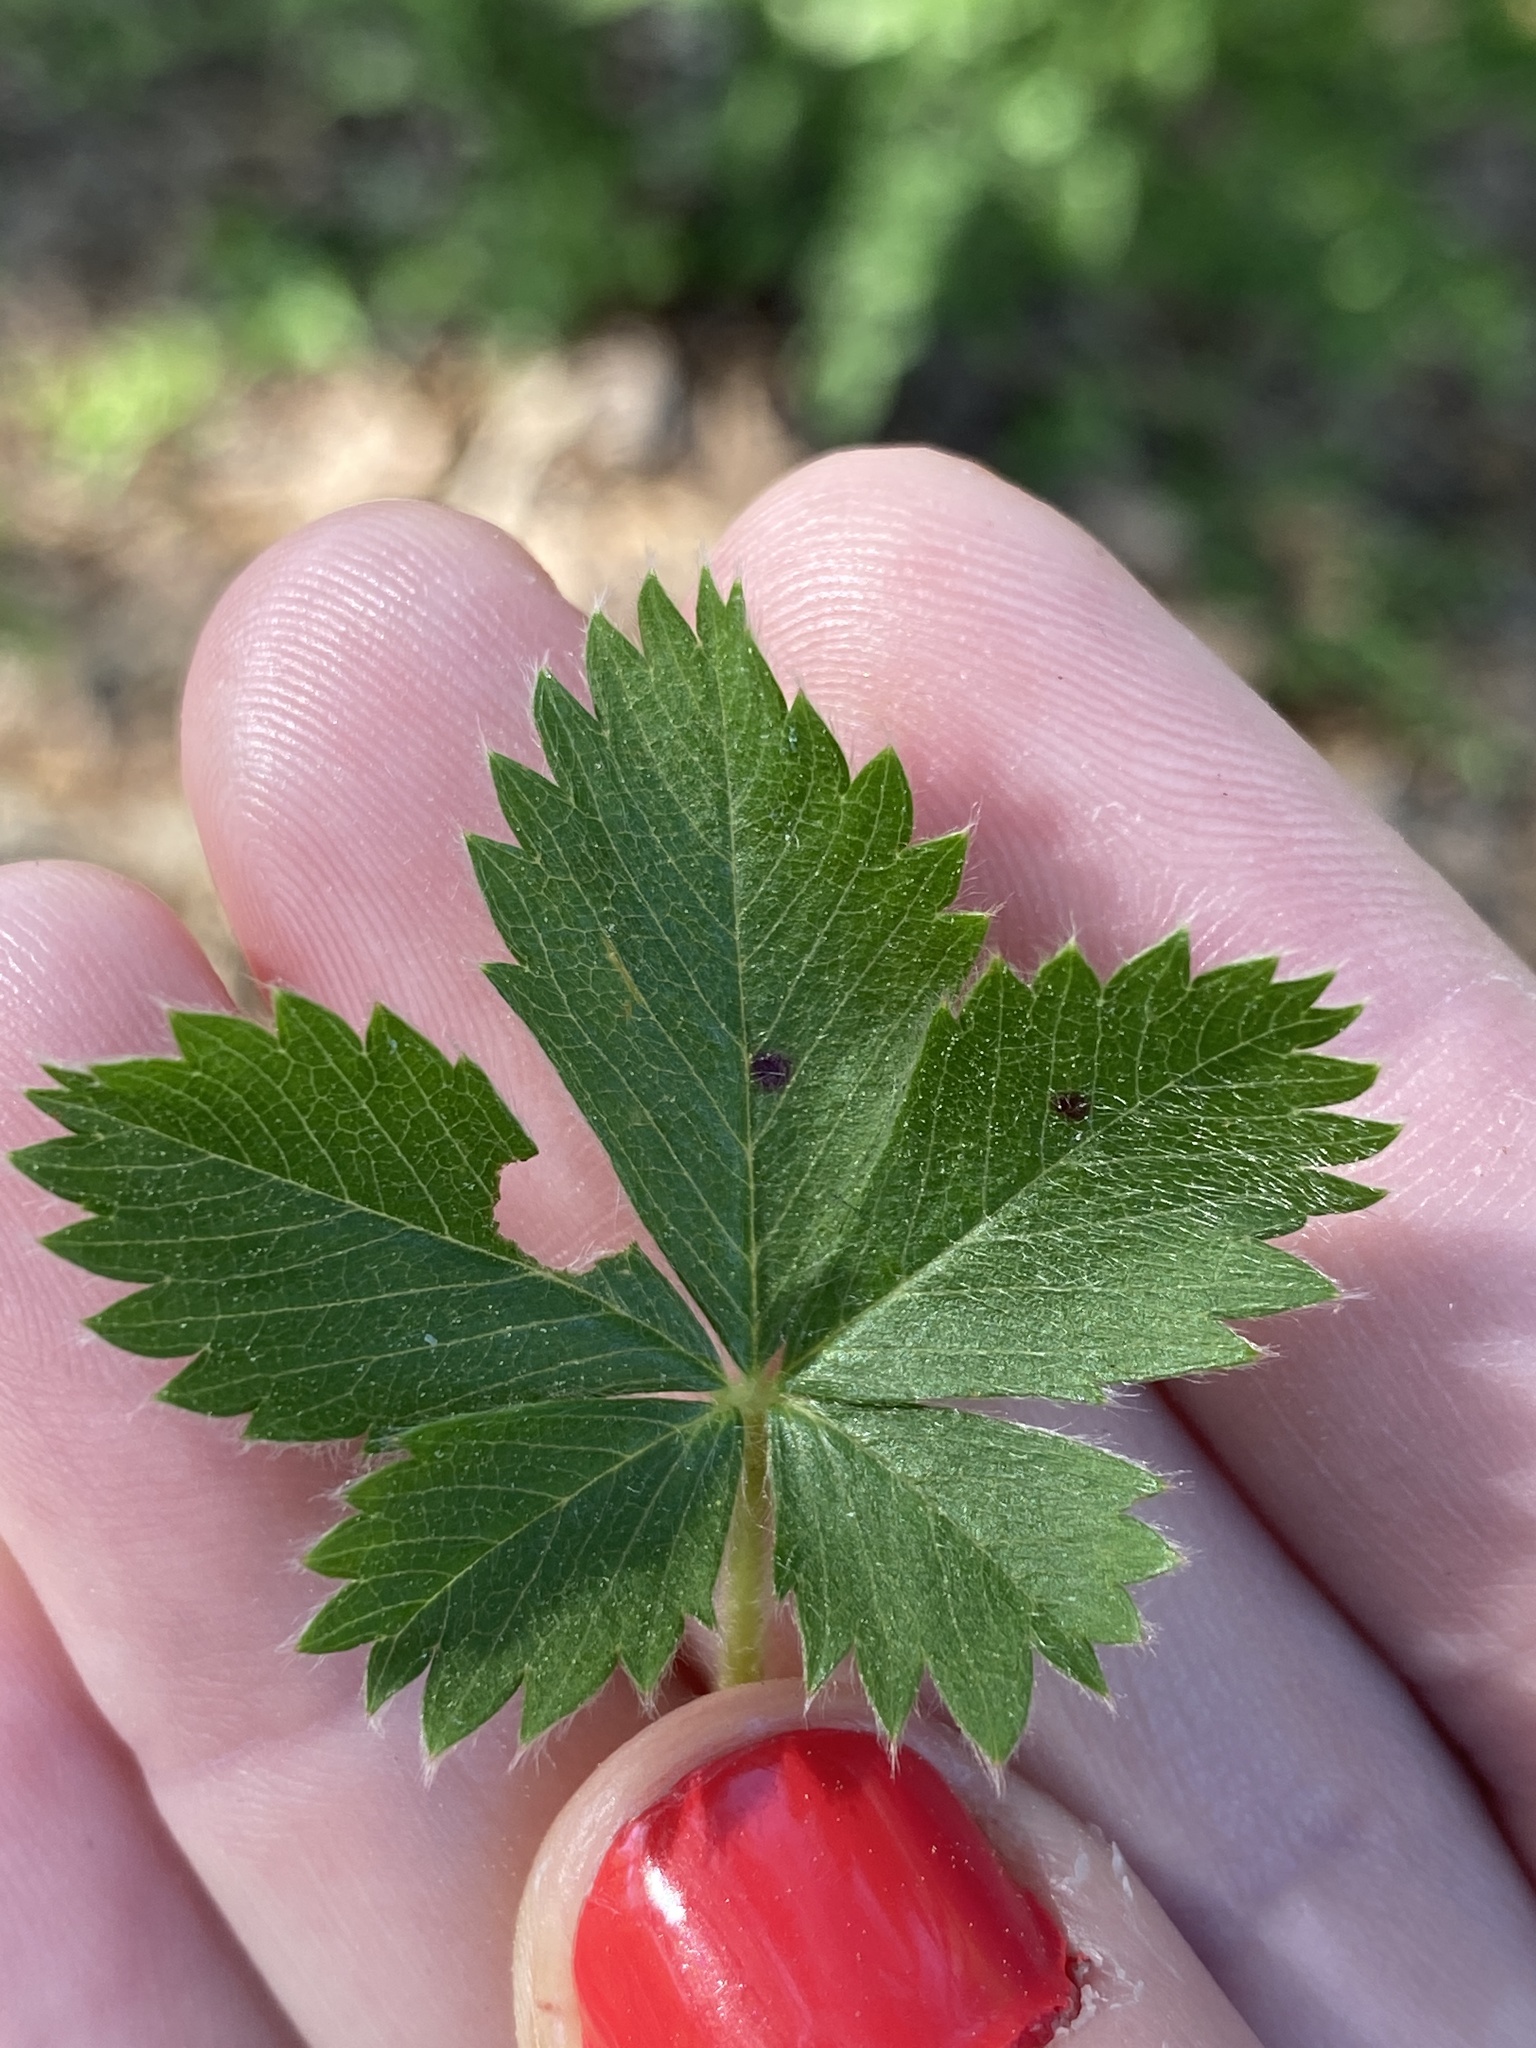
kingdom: Plantae
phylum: Tracheophyta
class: Magnoliopsida
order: Rosales
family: Rosaceae
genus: Potentilla
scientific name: Potentilla canadensis
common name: Canada cinquefoil
